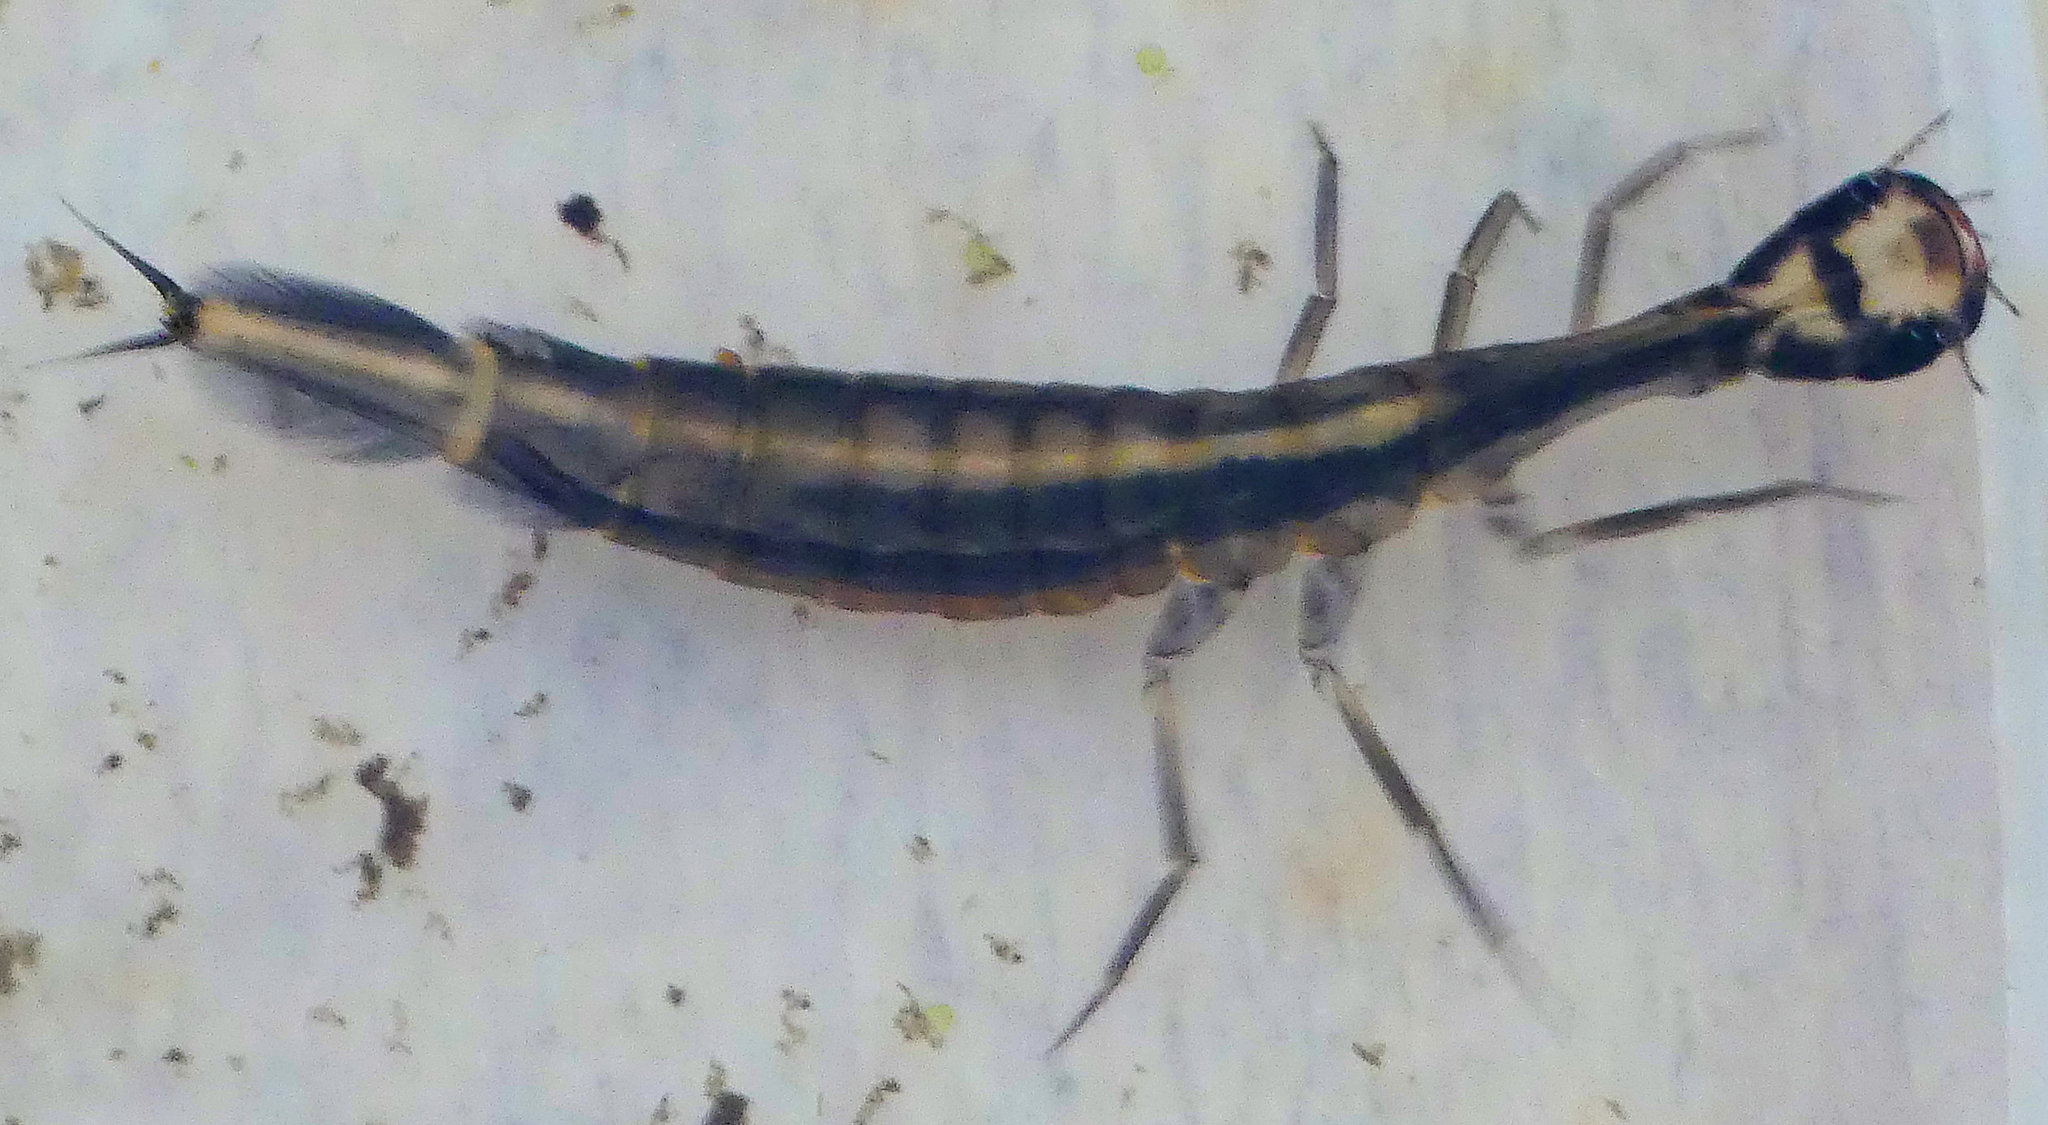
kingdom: Animalia
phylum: Arthropoda
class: Insecta
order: Coleoptera
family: Dytiscidae
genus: Acilius
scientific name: Acilius sulcatus
